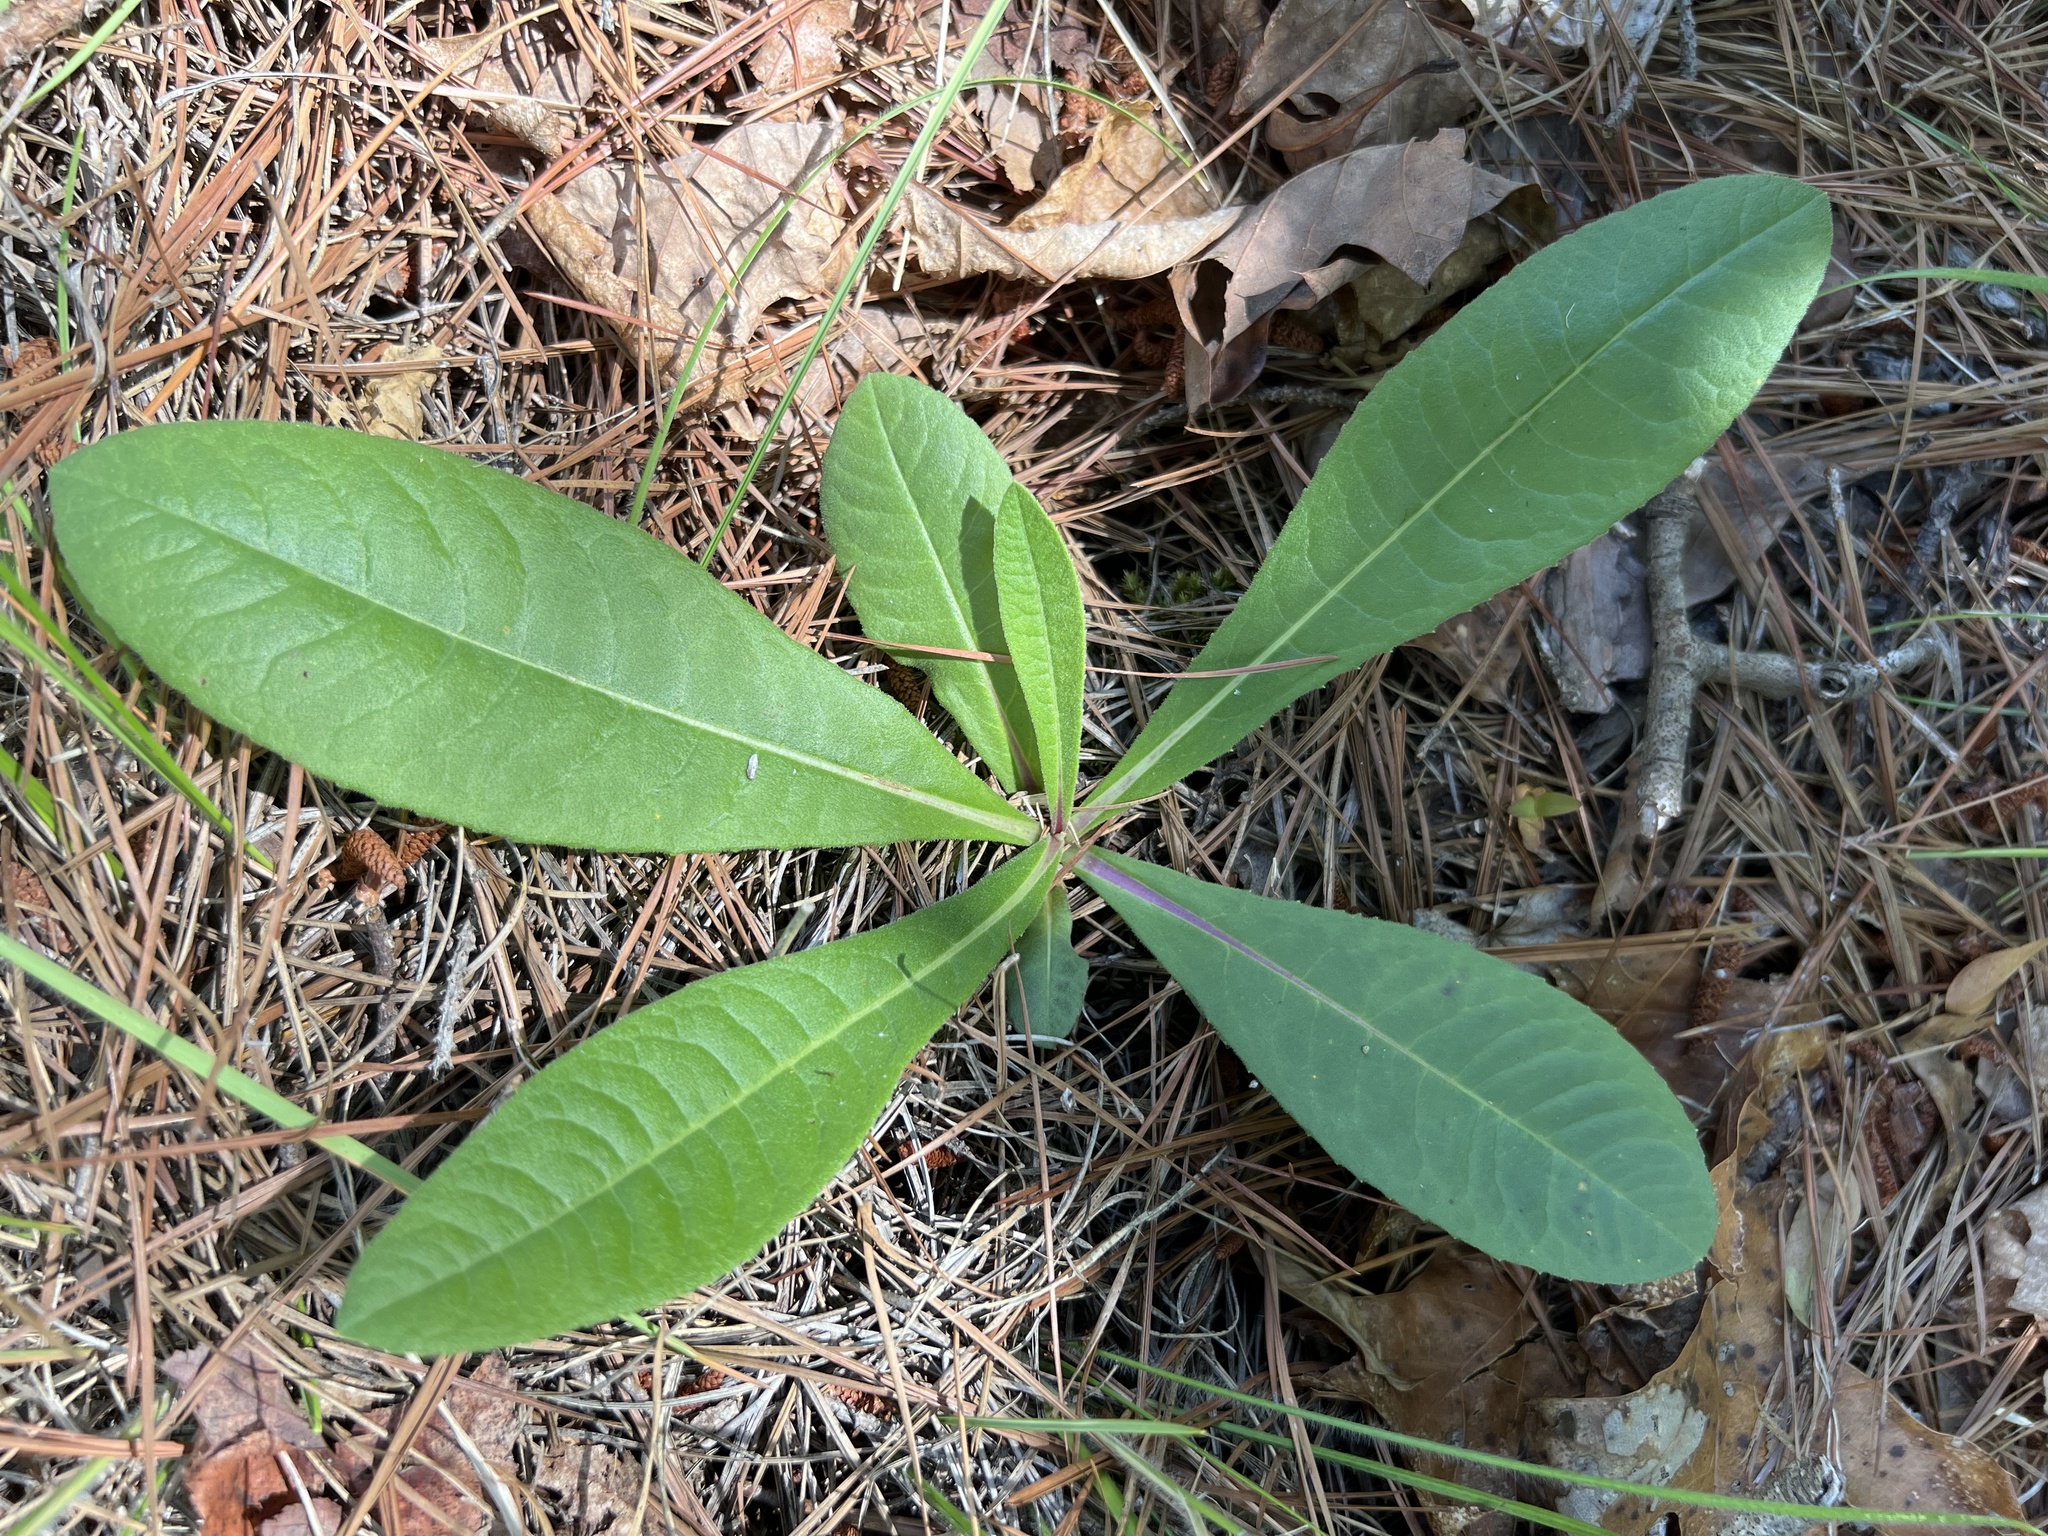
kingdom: Plantae
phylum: Tracheophyta
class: Magnoliopsida
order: Asterales
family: Asteraceae
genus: Vernonia
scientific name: Vernonia acaulis
